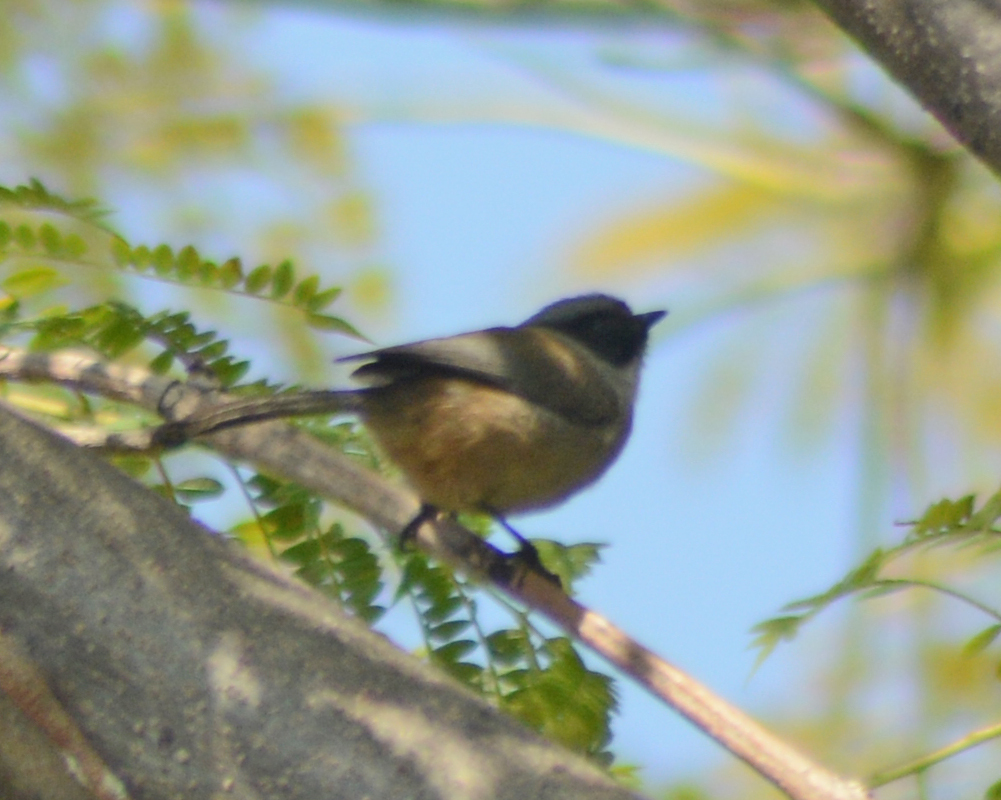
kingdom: Animalia
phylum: Chordata
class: Aves
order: Passeriformes
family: Aegithalidae
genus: Psaltriparus
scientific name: Psaltriparus minimus
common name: American bushtit
